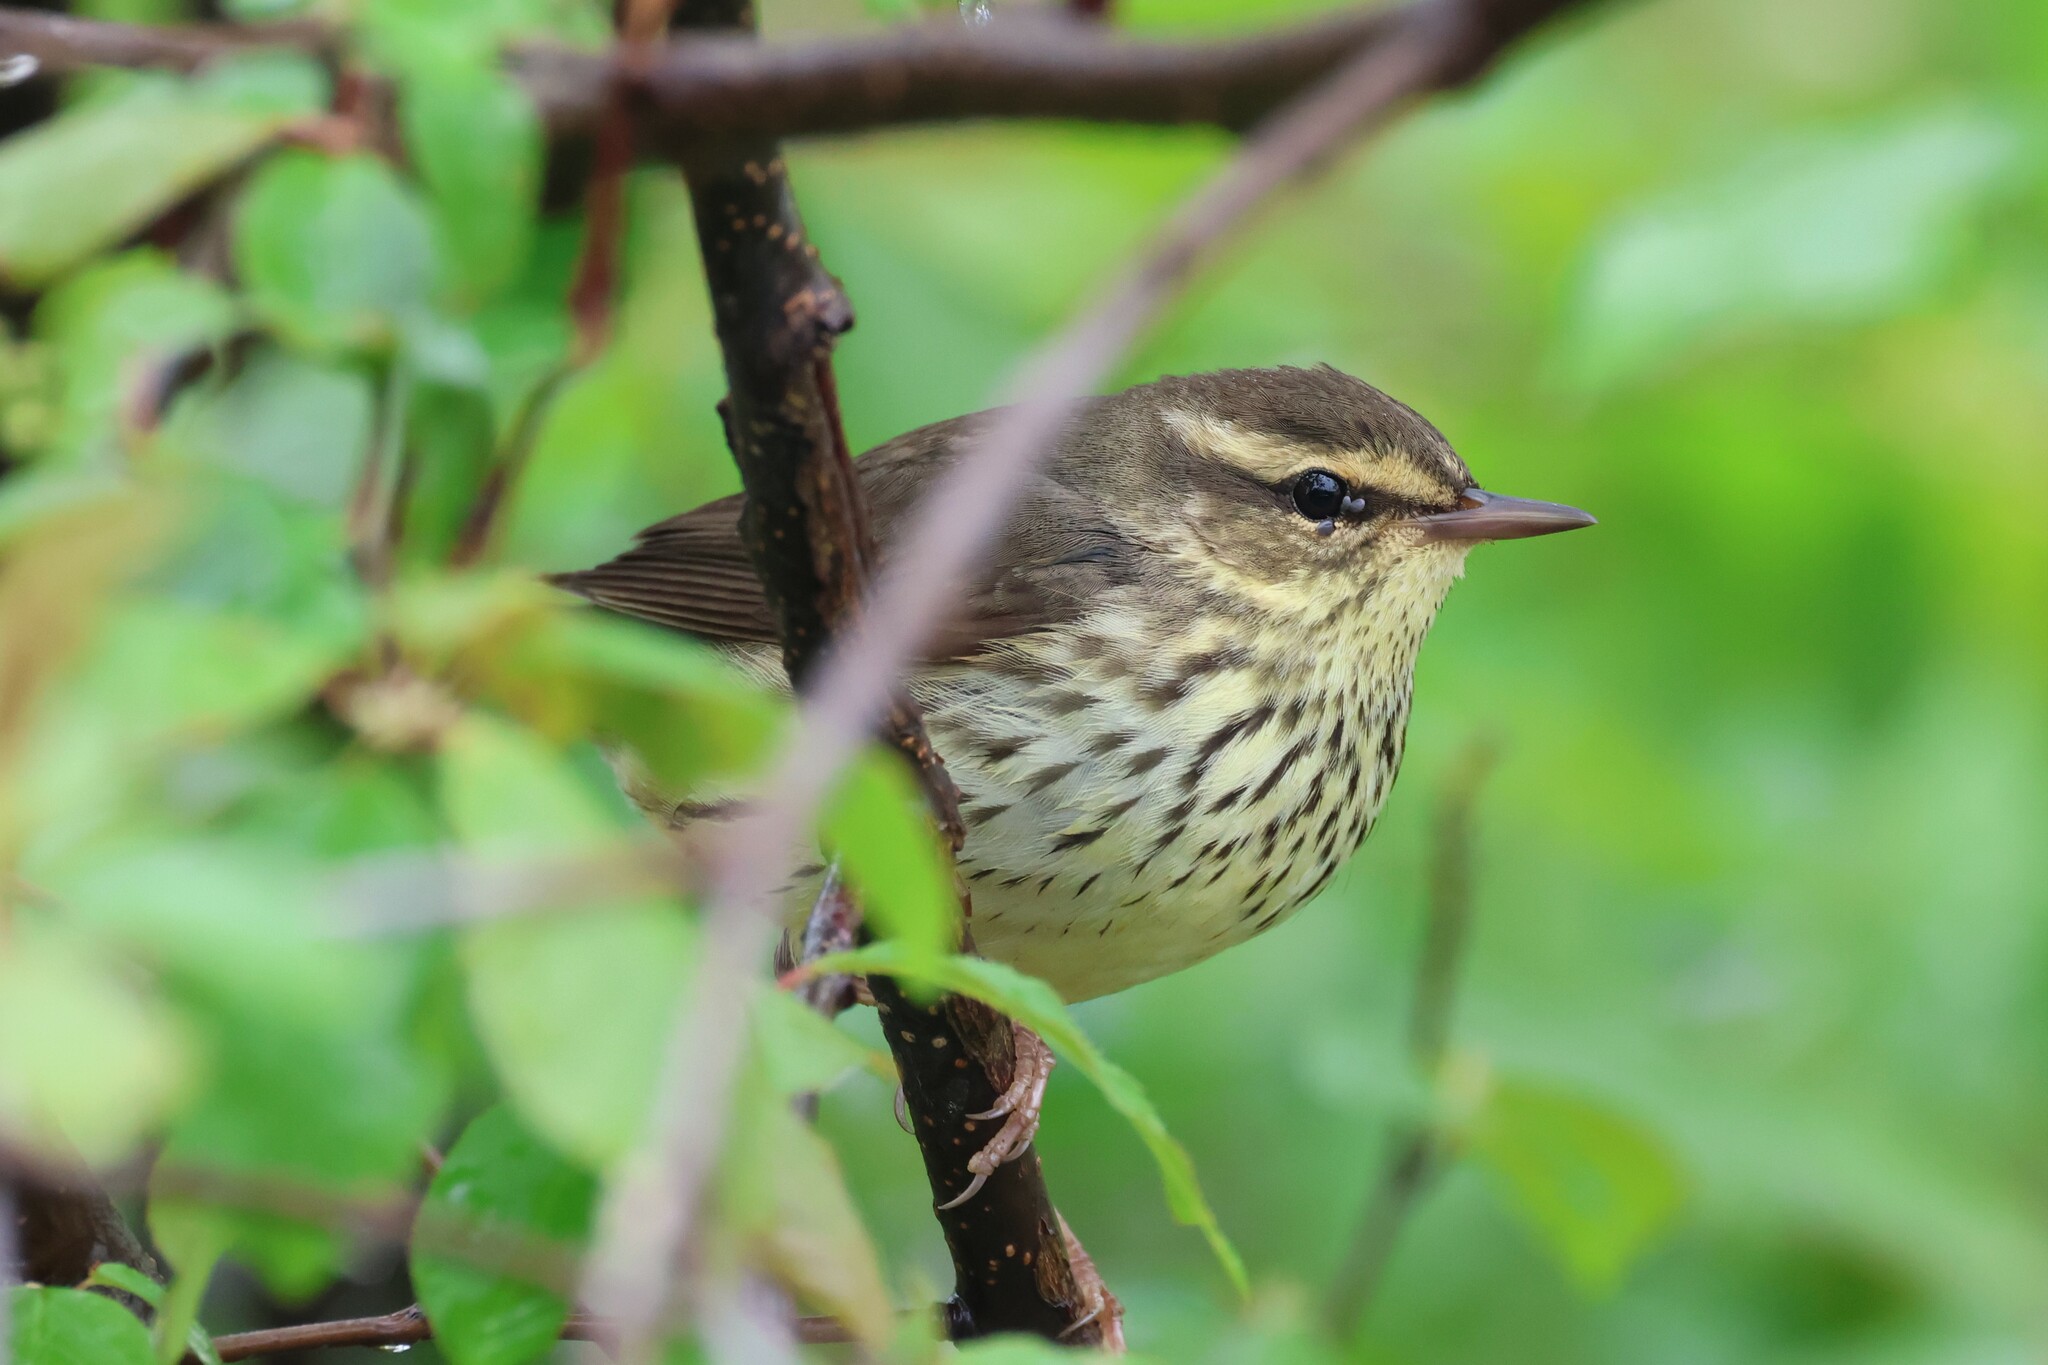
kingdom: Animalia
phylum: Chordata
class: Aves
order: Passeriformes
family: Parulidae
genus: Parkesia
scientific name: Parkesia noveboracensis
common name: Northern waterthrush
